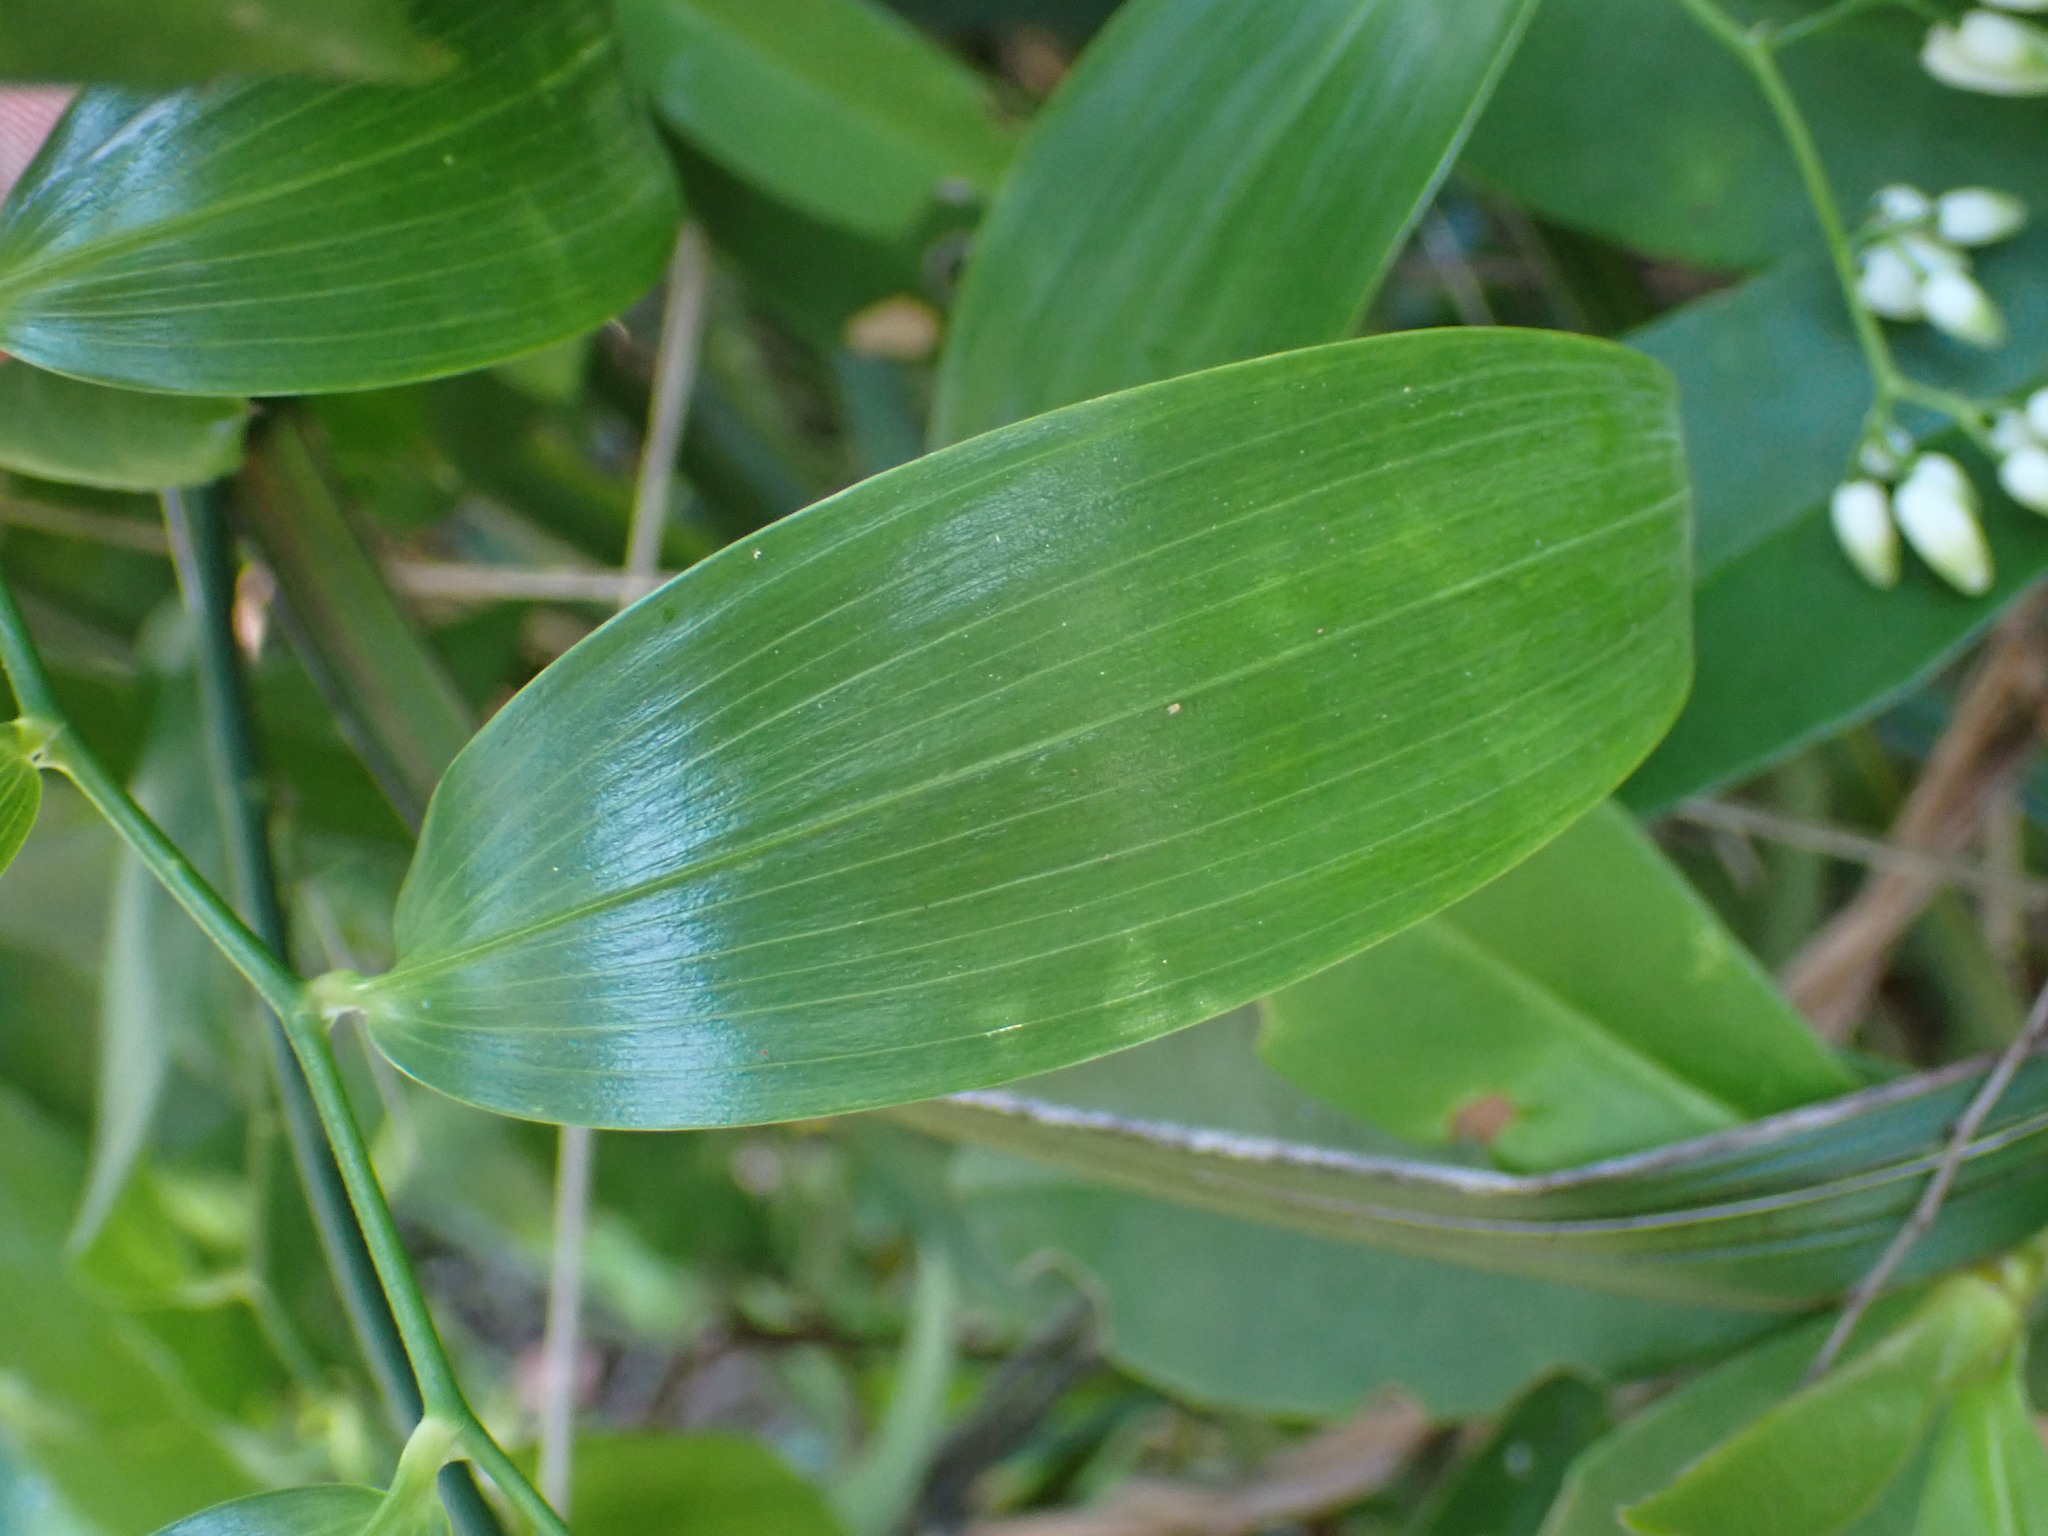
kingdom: Plantae
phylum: Tracheophyta
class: Liliopsida
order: Asparagales
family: Asphodelaceae
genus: Geitonoplesium
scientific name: Geitonoplesium cymosum
